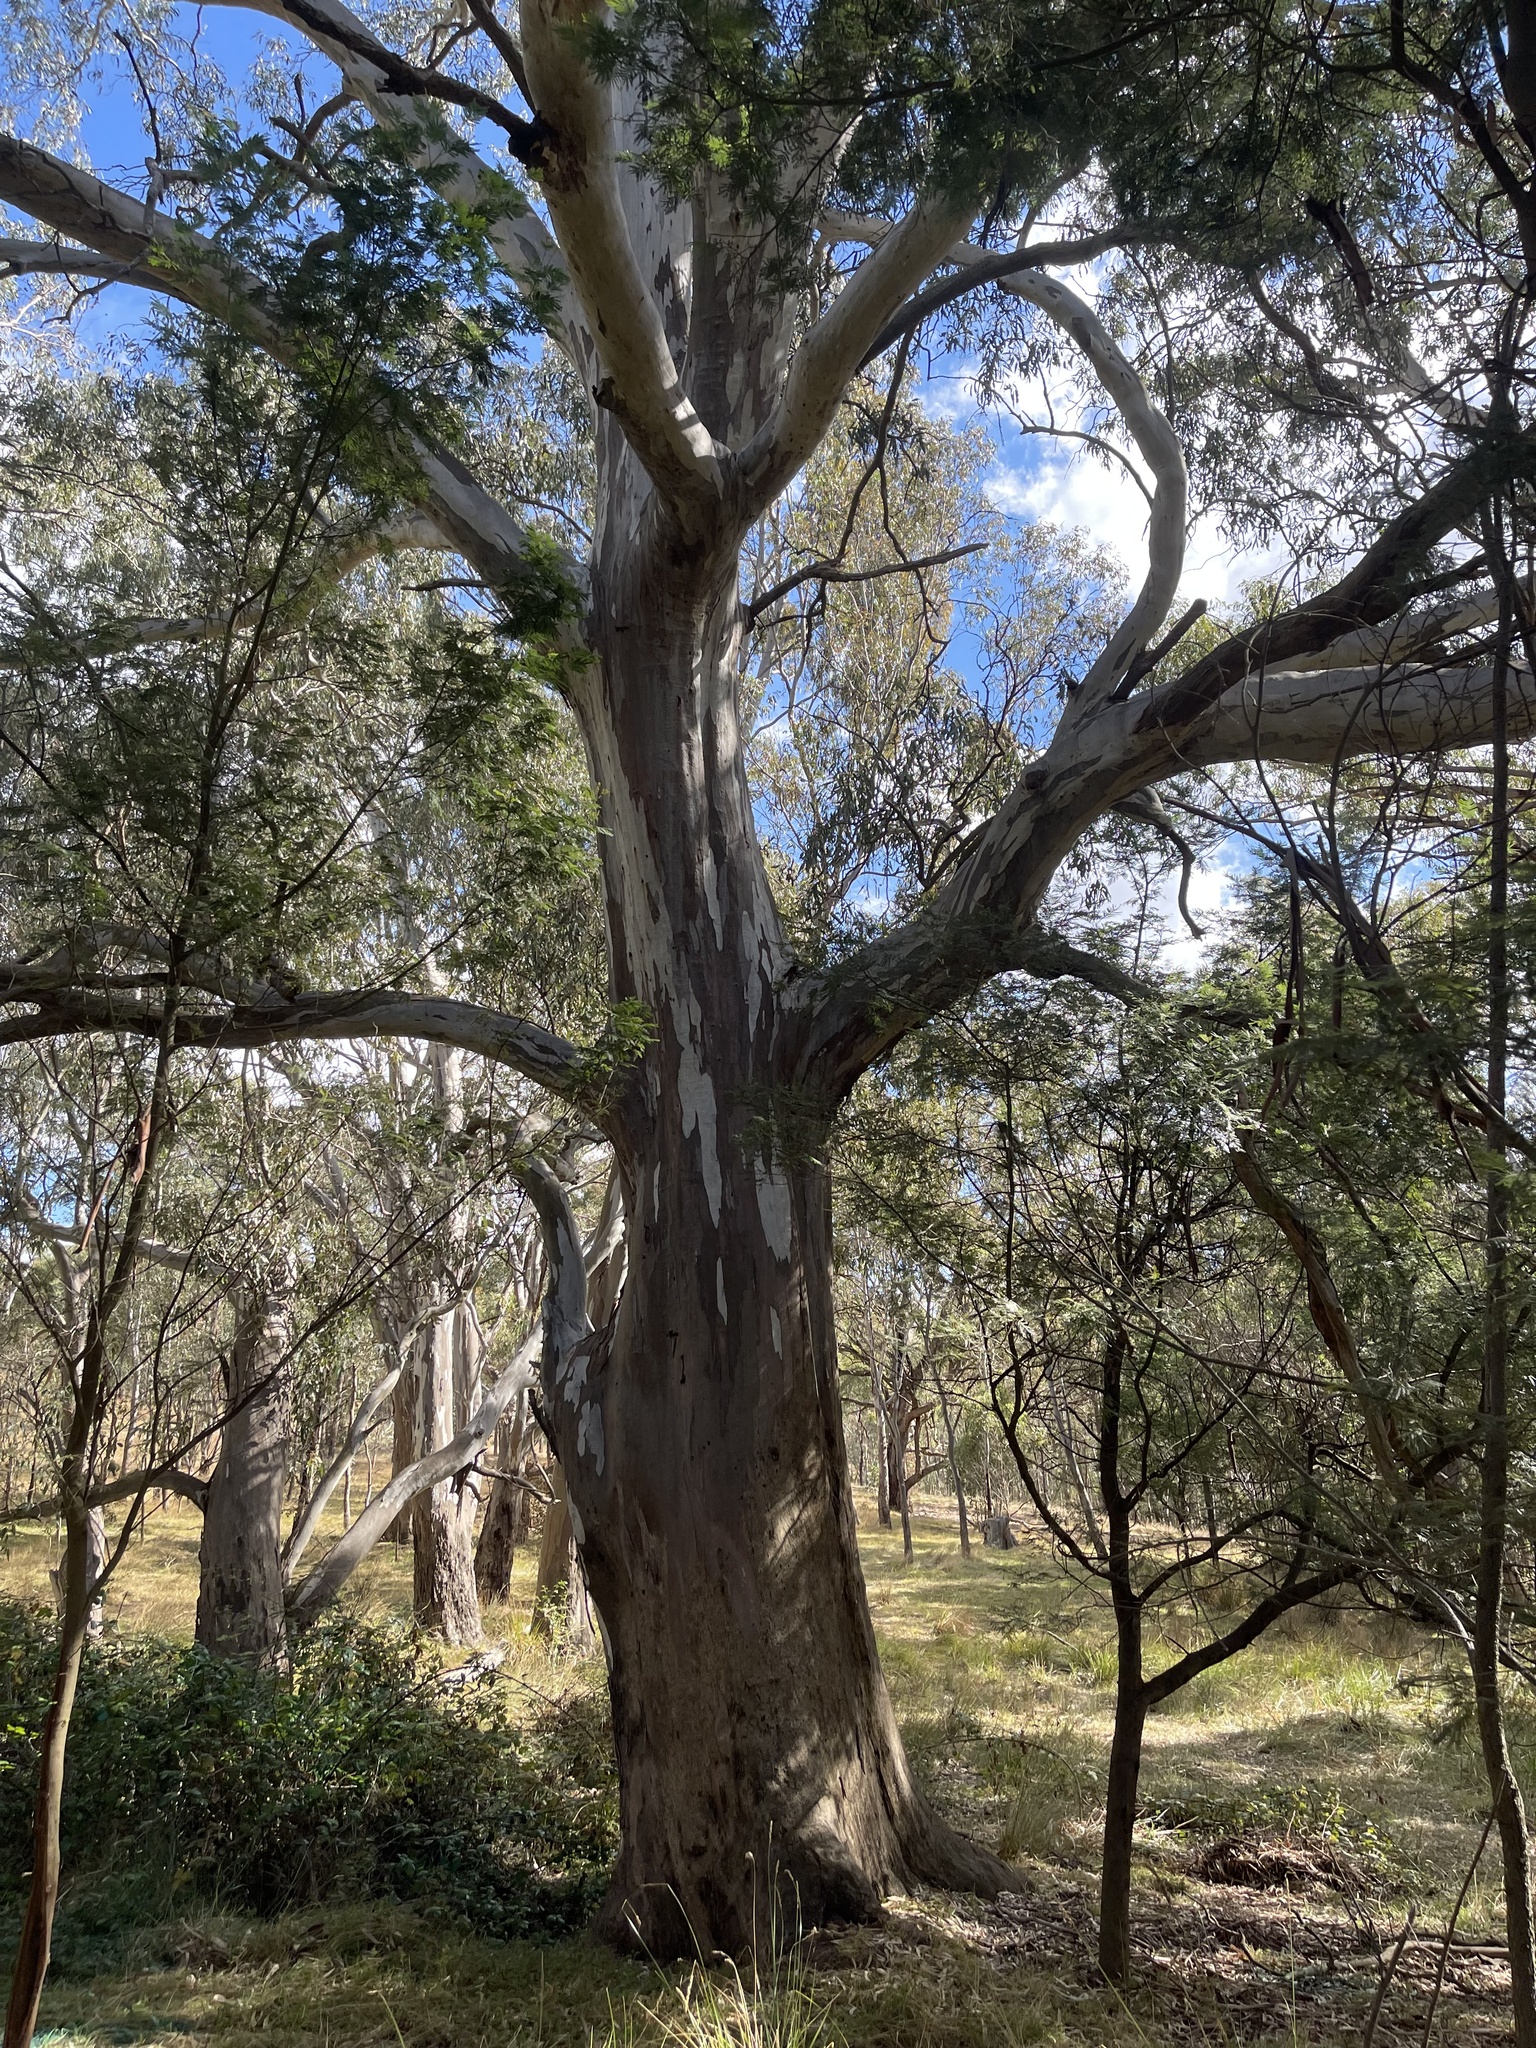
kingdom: Plantae
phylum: Tracheophyta
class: Magnoliopsida
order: Myrtales
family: Myrtaceae
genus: Eucalyptus
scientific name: Eucalyptus camaldulensis
